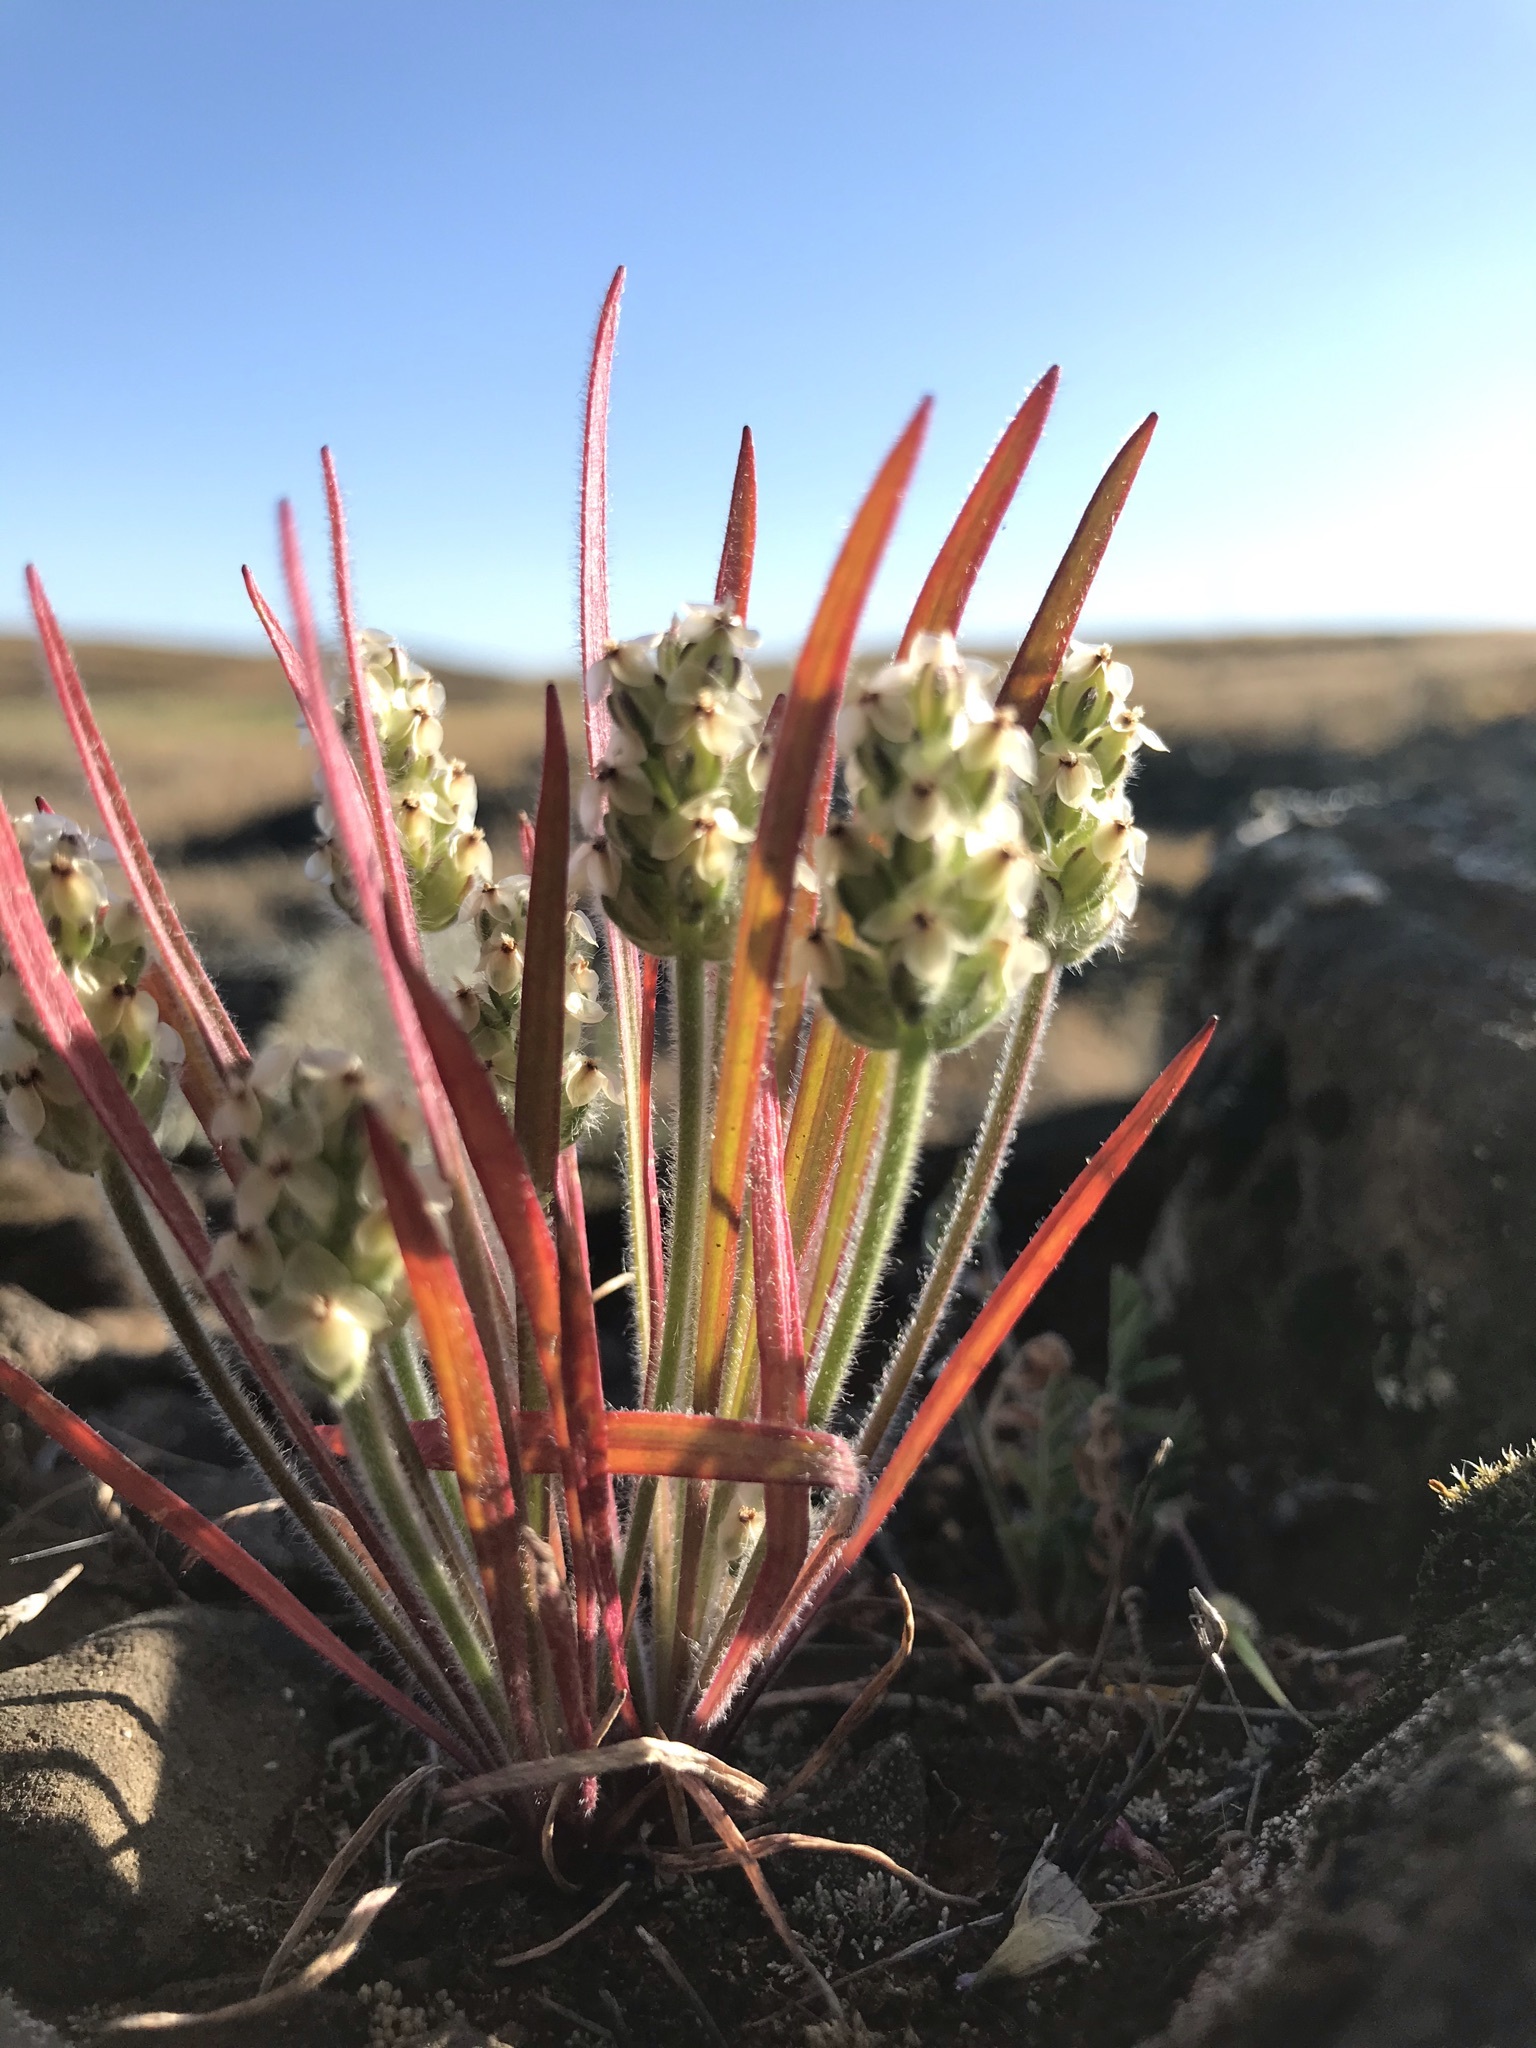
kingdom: Plantae
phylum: Tracheophyta
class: Magnoliopsida
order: Lamiales
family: Plantaginaceae
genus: Plantago
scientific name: Plantago erecta
